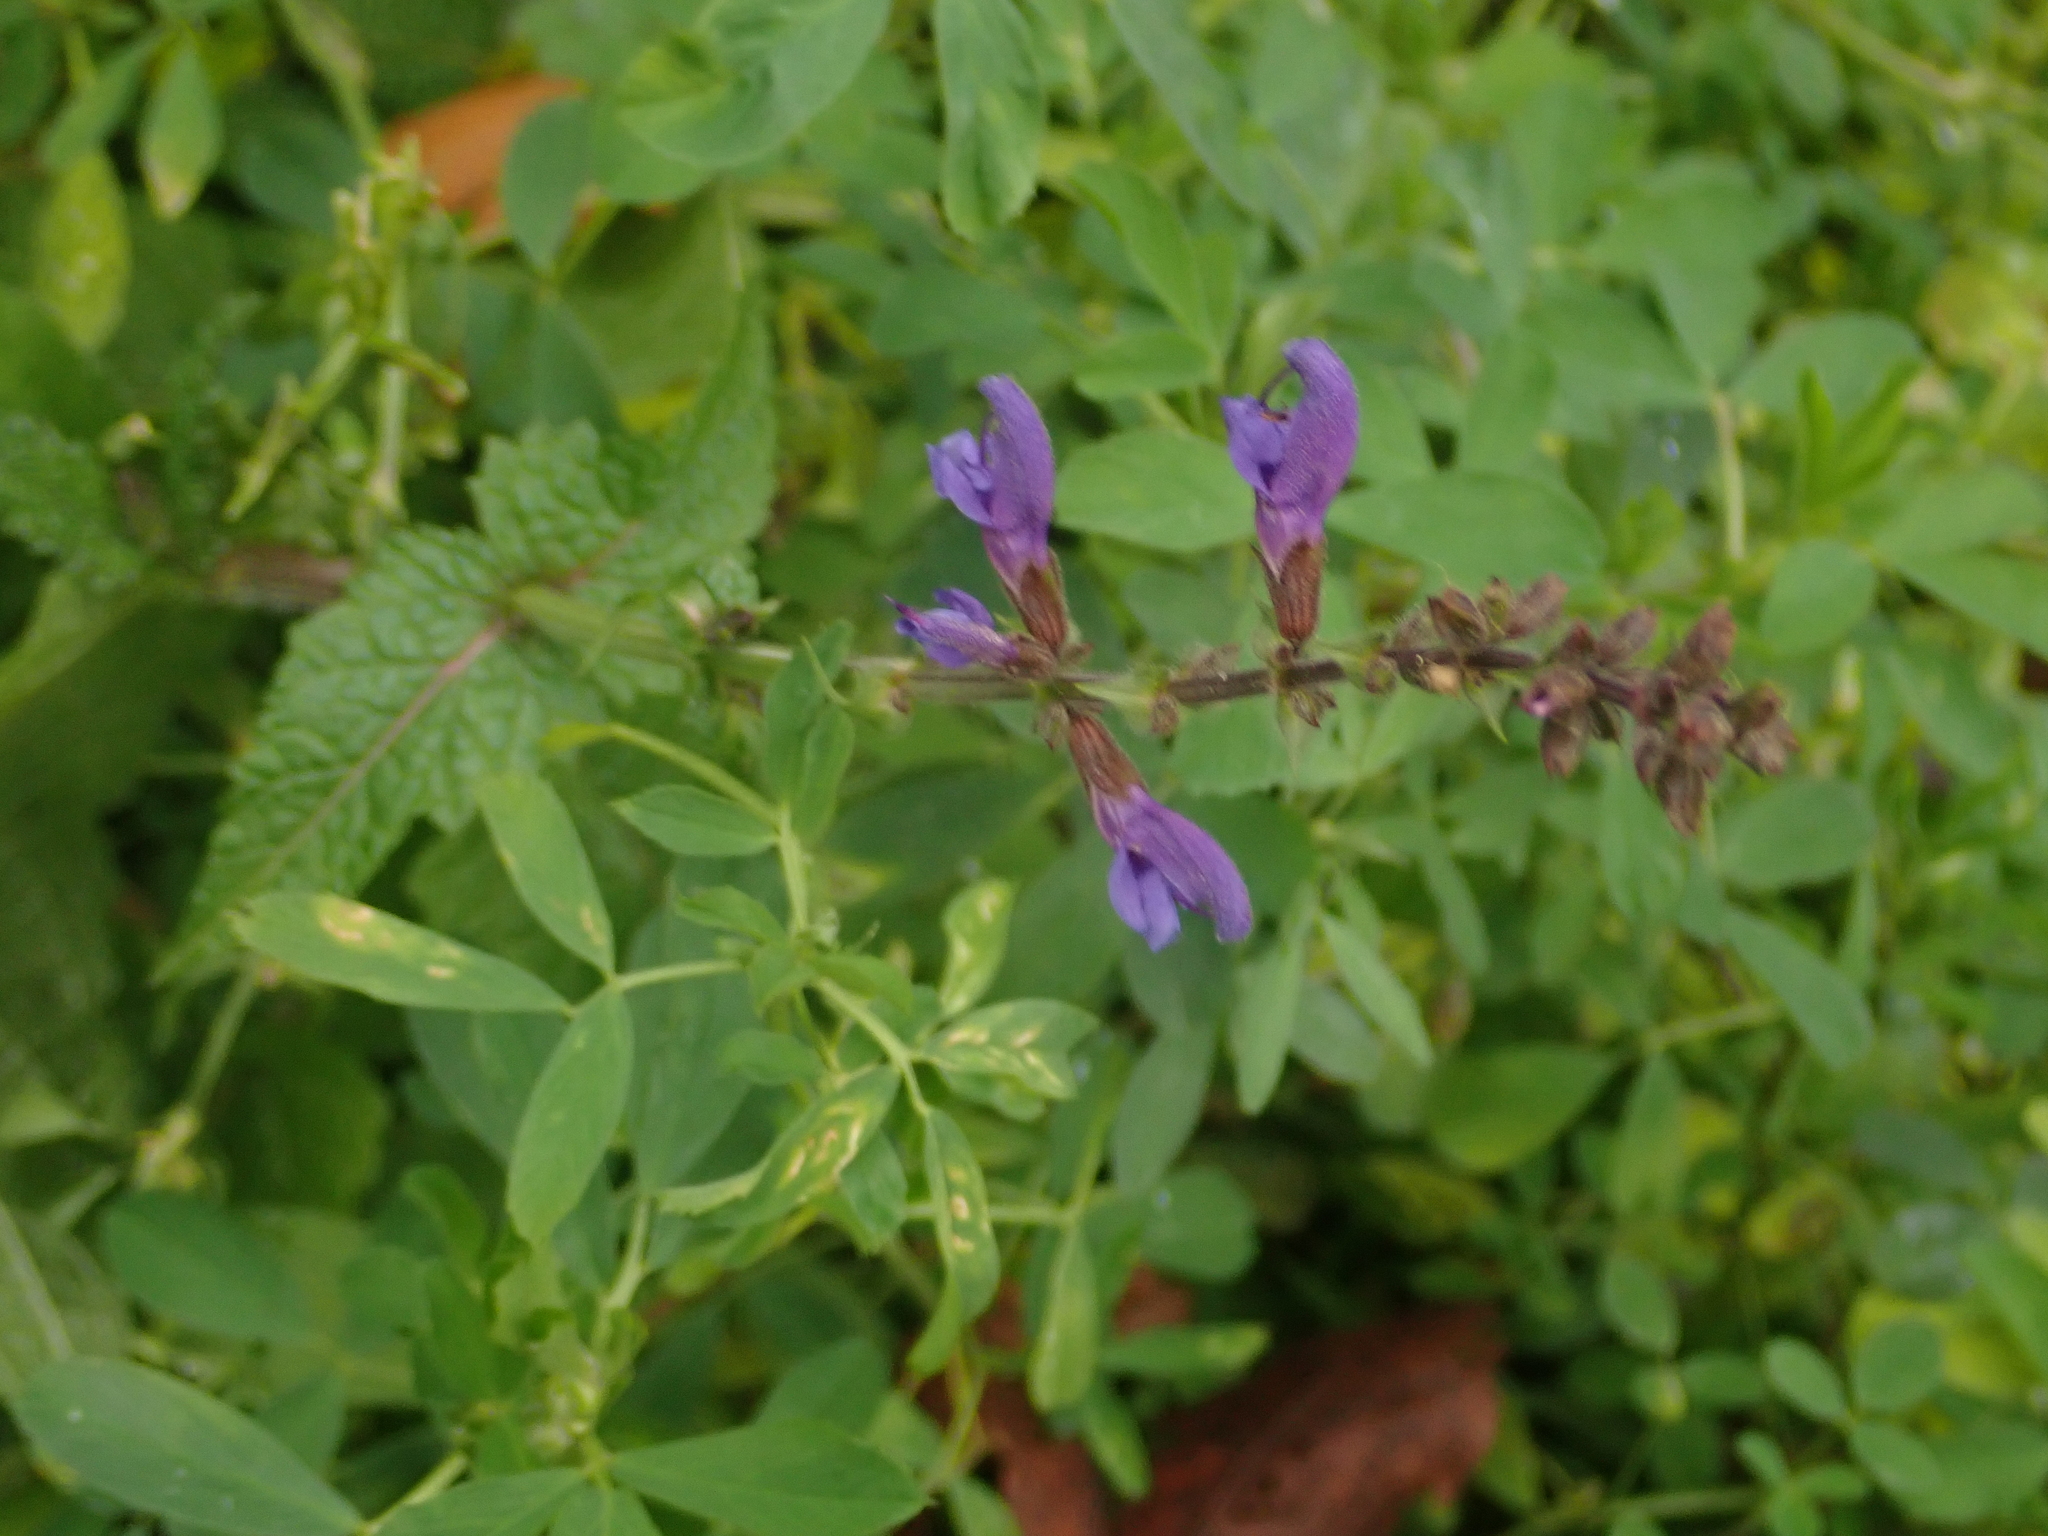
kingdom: Plantae
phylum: Tracheophyta
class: Magnoliopsida
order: Lamiales
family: Lamiaceae
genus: Salvia
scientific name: Salvia pratensis
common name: Meadow sage
